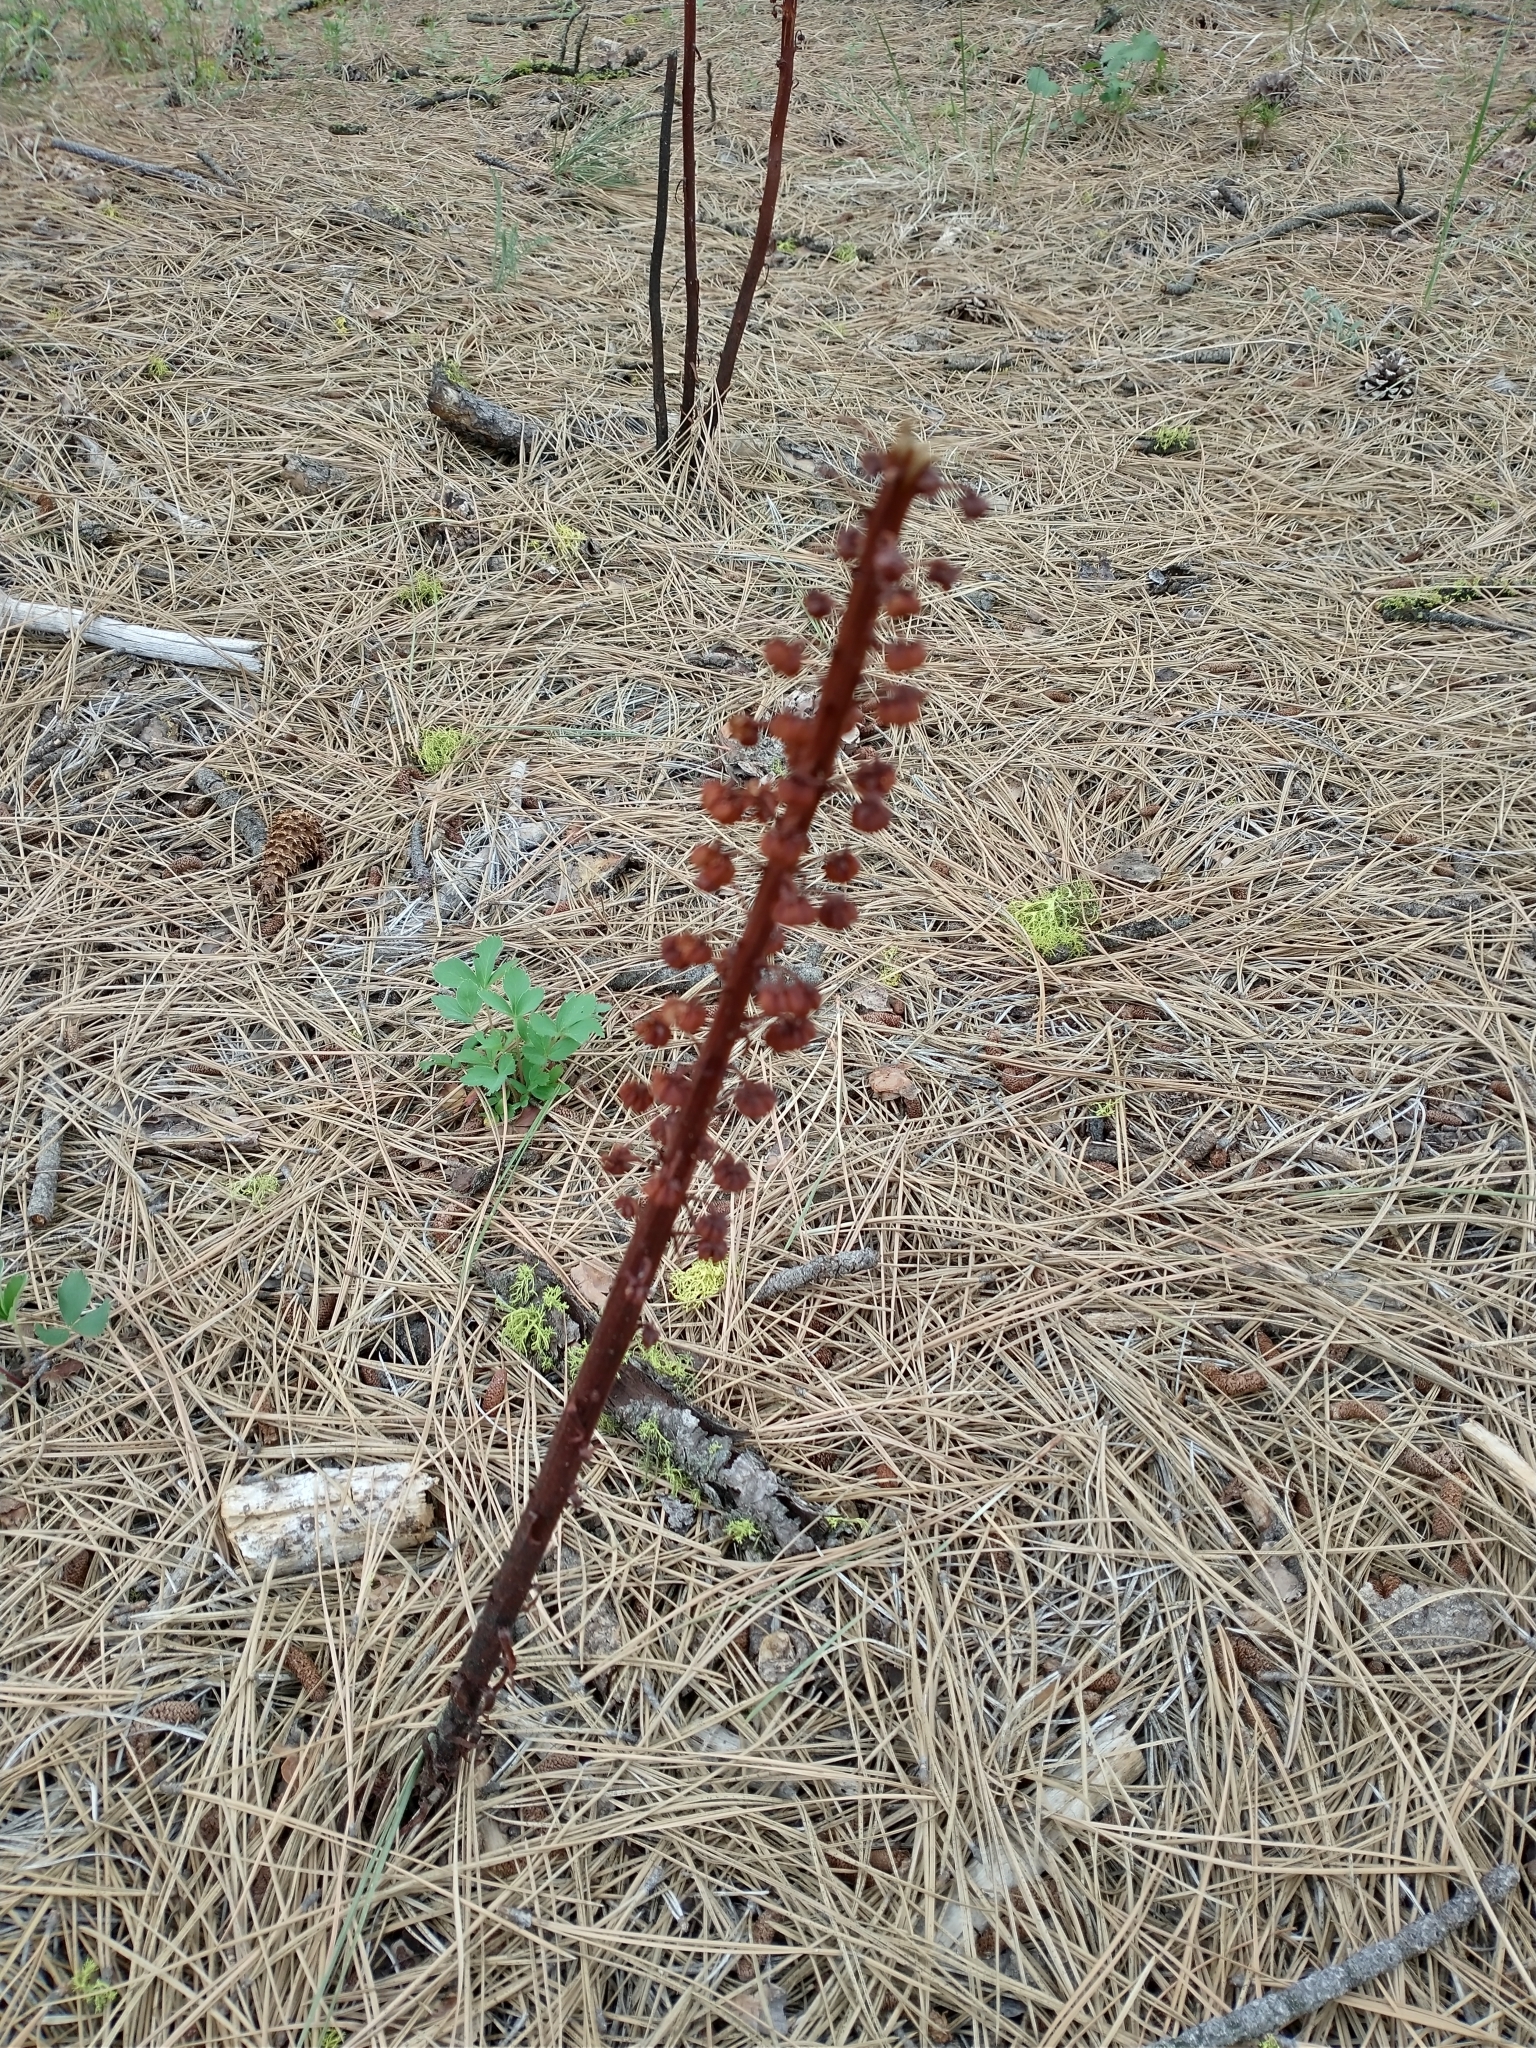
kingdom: Plantae
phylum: Tracheophyta
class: Magnoliopsida
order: Ericales
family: Ericaceae
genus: Pterospora
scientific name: Pterospora andromedea
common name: Giant bird's-nest
